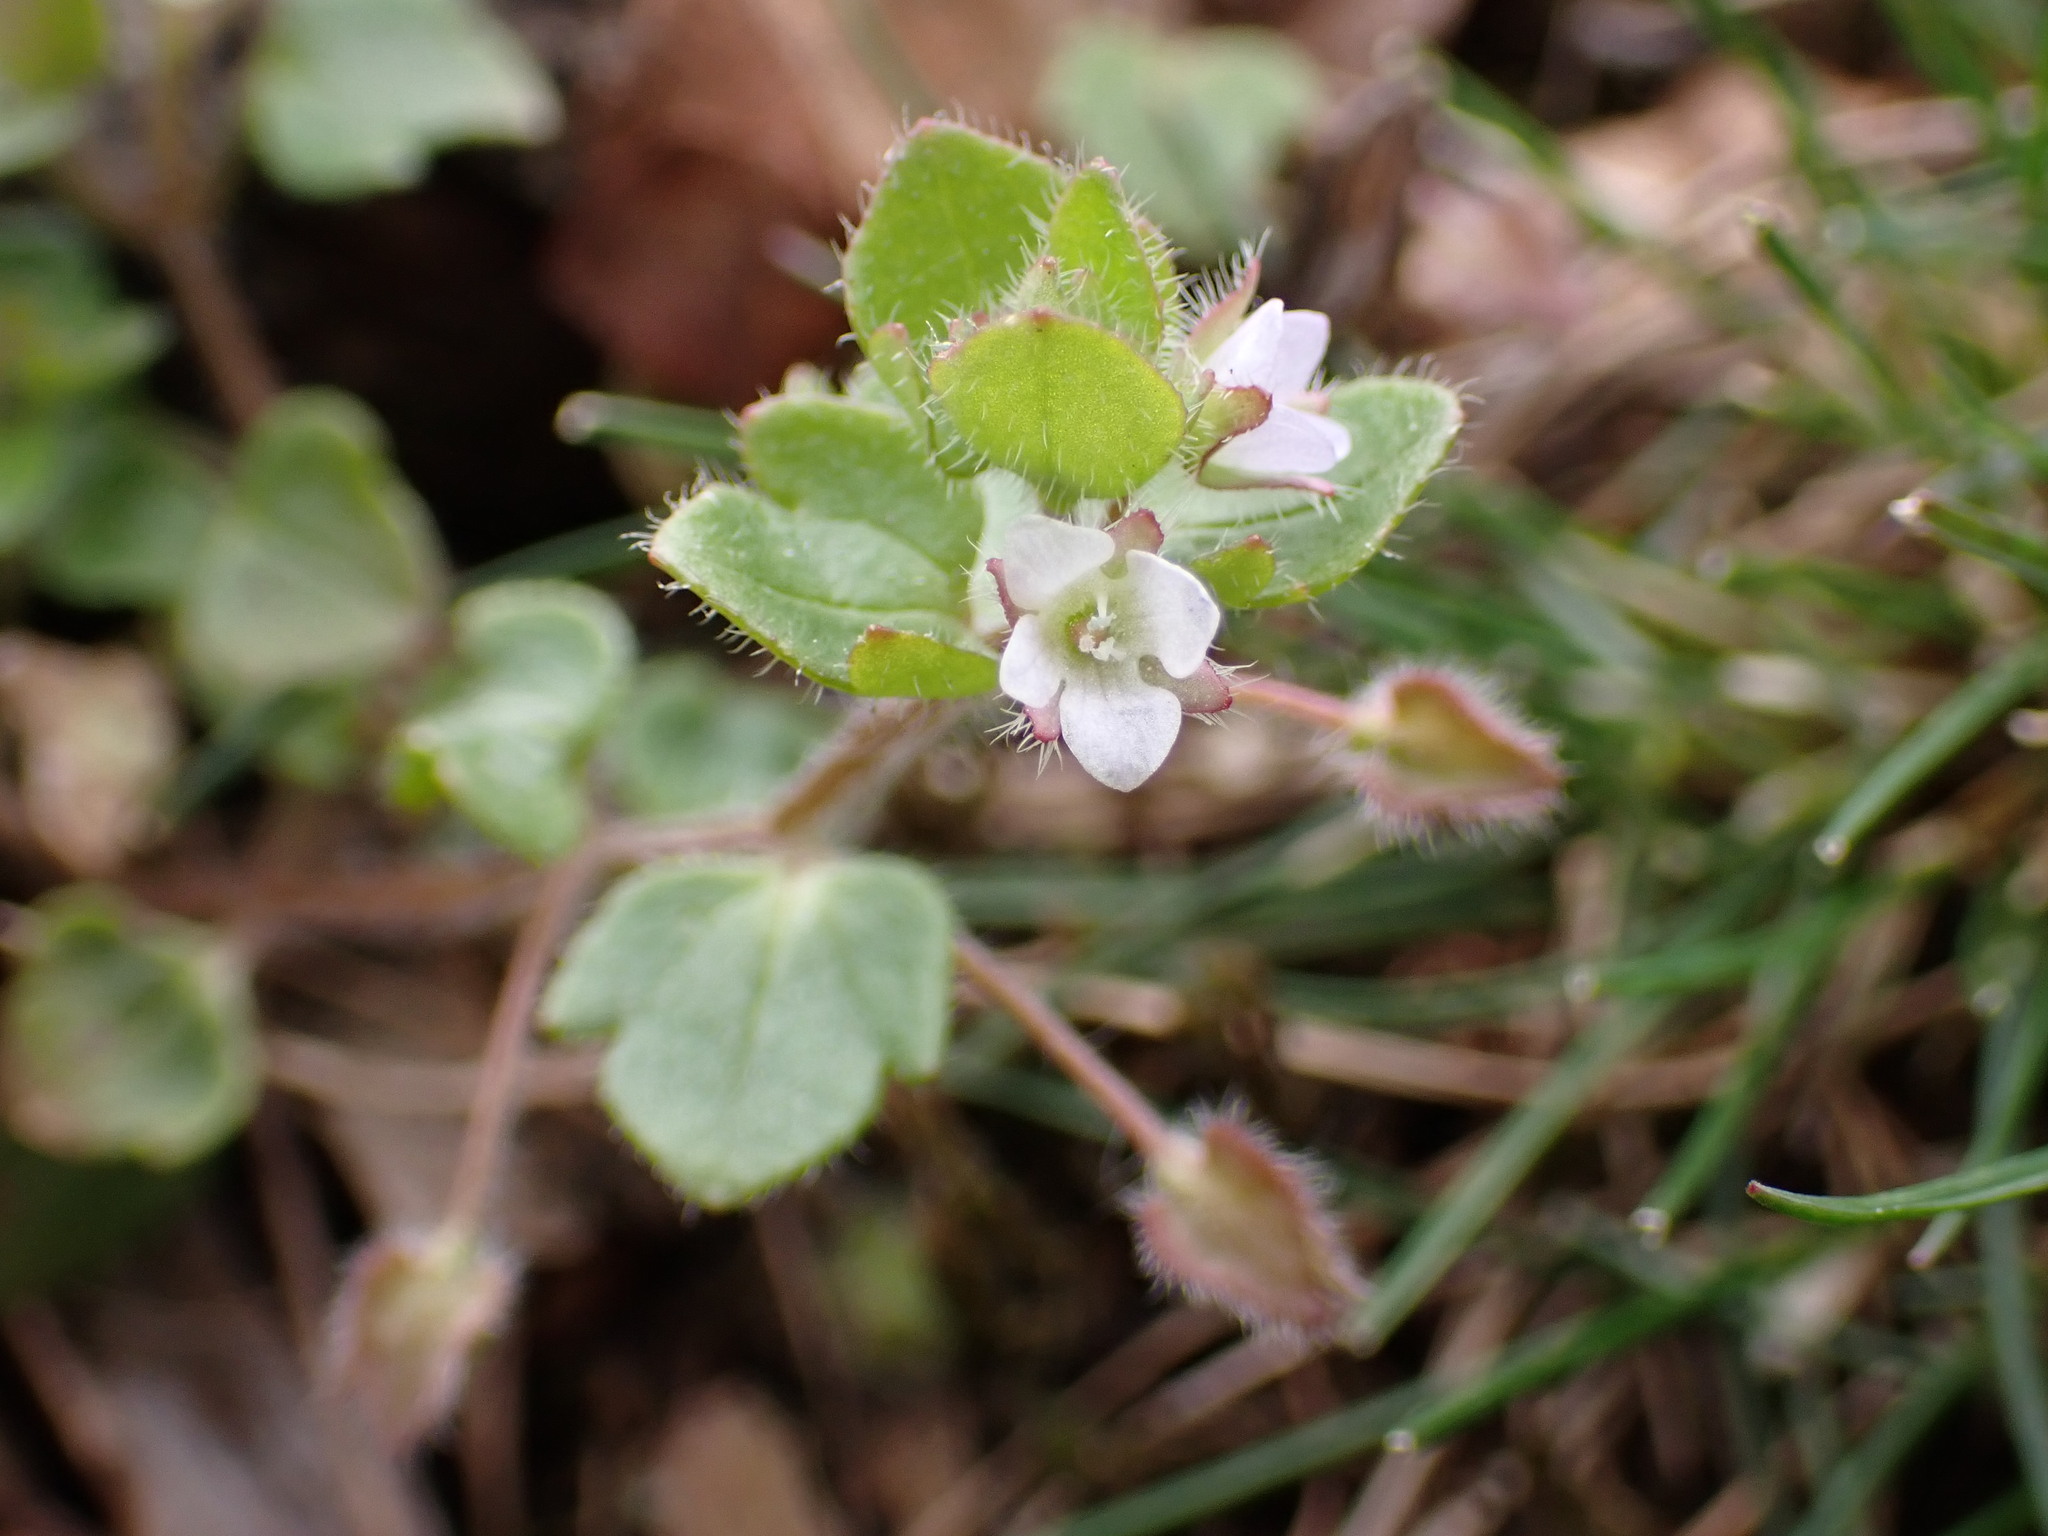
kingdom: Plantae
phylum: Tracheophyta
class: Magnoliopsida
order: Lamiales
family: Plantaginaceae
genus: Veronica
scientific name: Veronica sublobata
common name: False ivy-leaved speedwell
